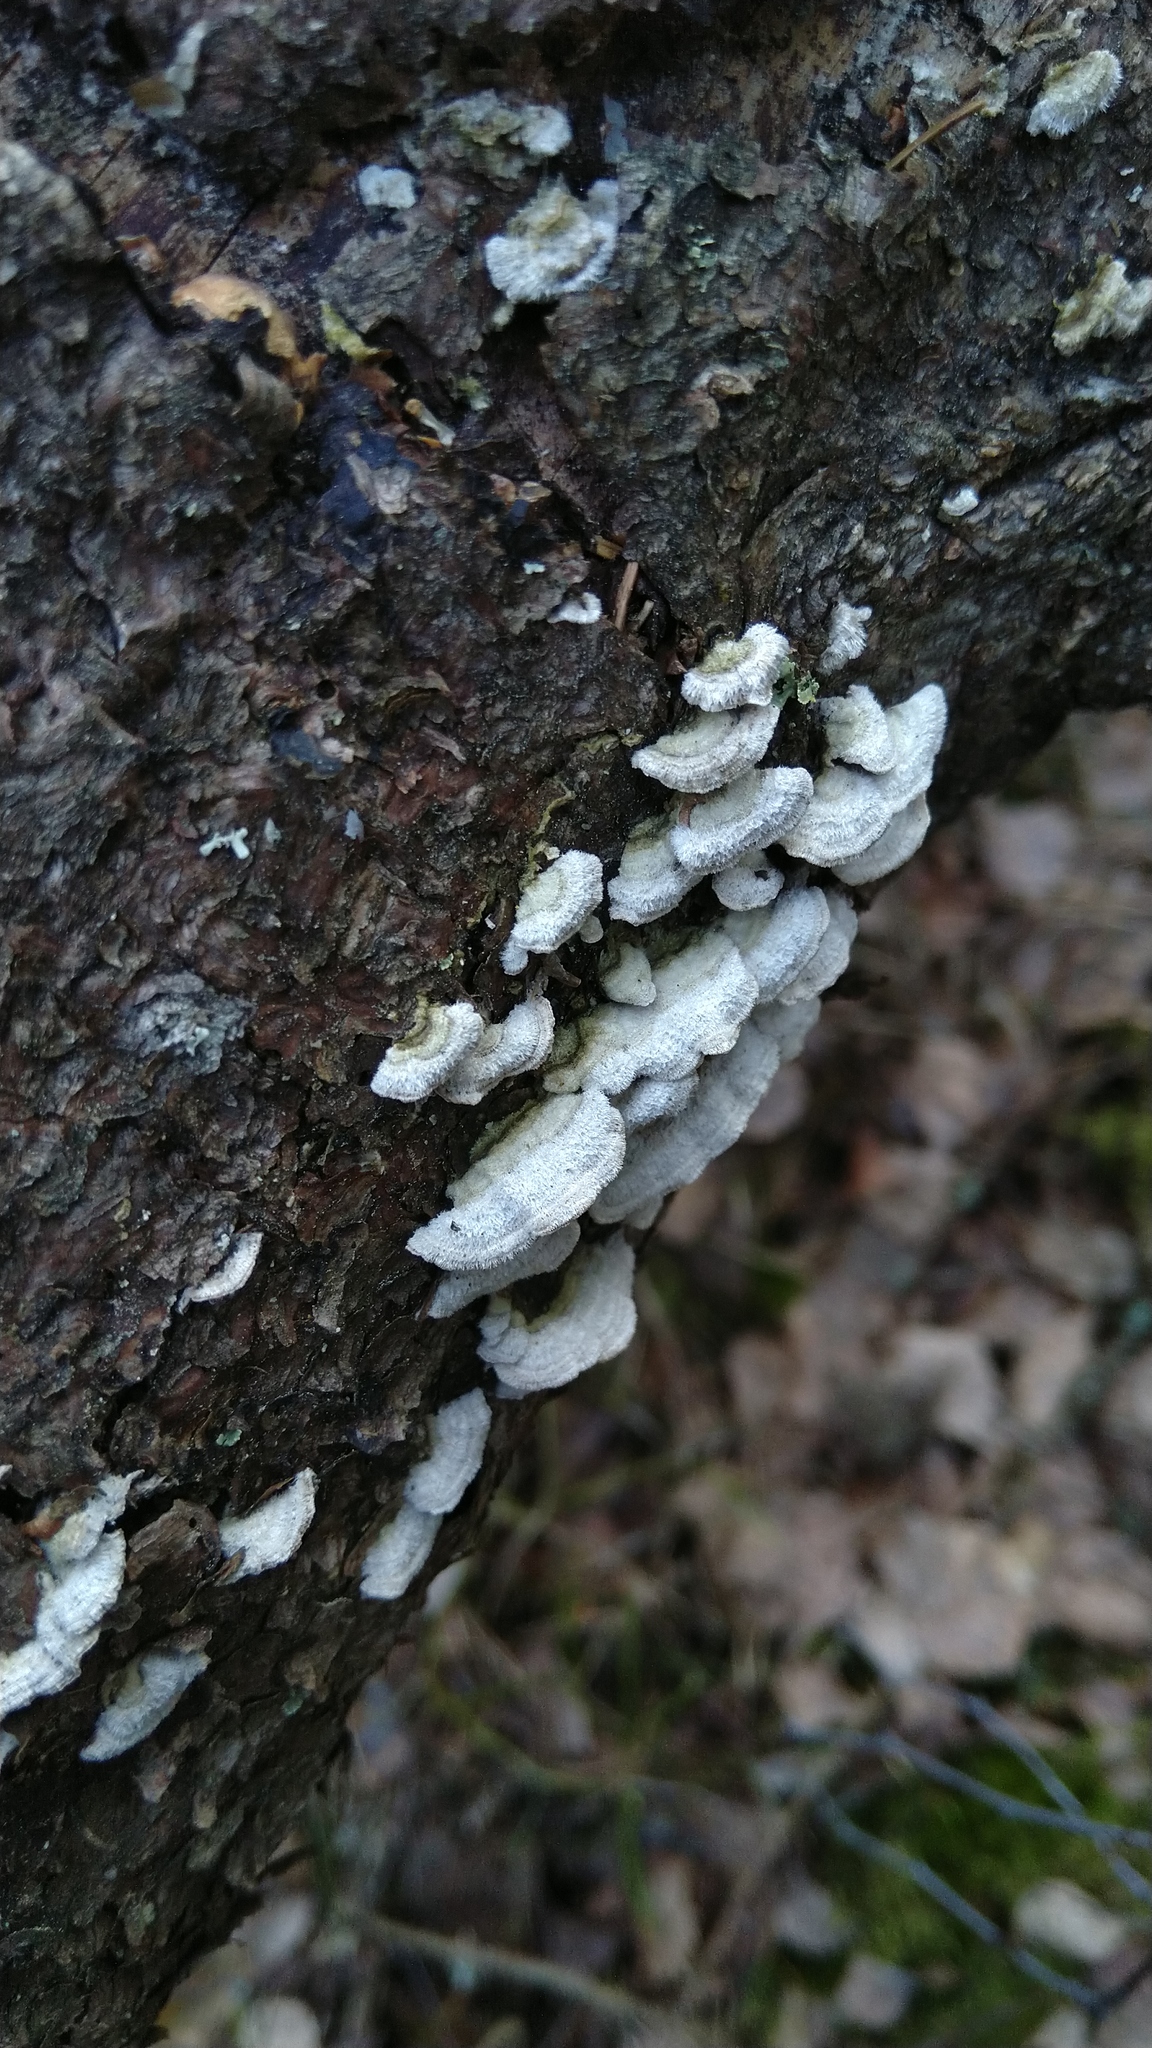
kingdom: Fungi
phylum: Basidiomycota
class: Agaricomycetes
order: Hymenochaetales
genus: Trichaptum
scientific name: Trichaptum abietinum
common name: Purplepore bracket
